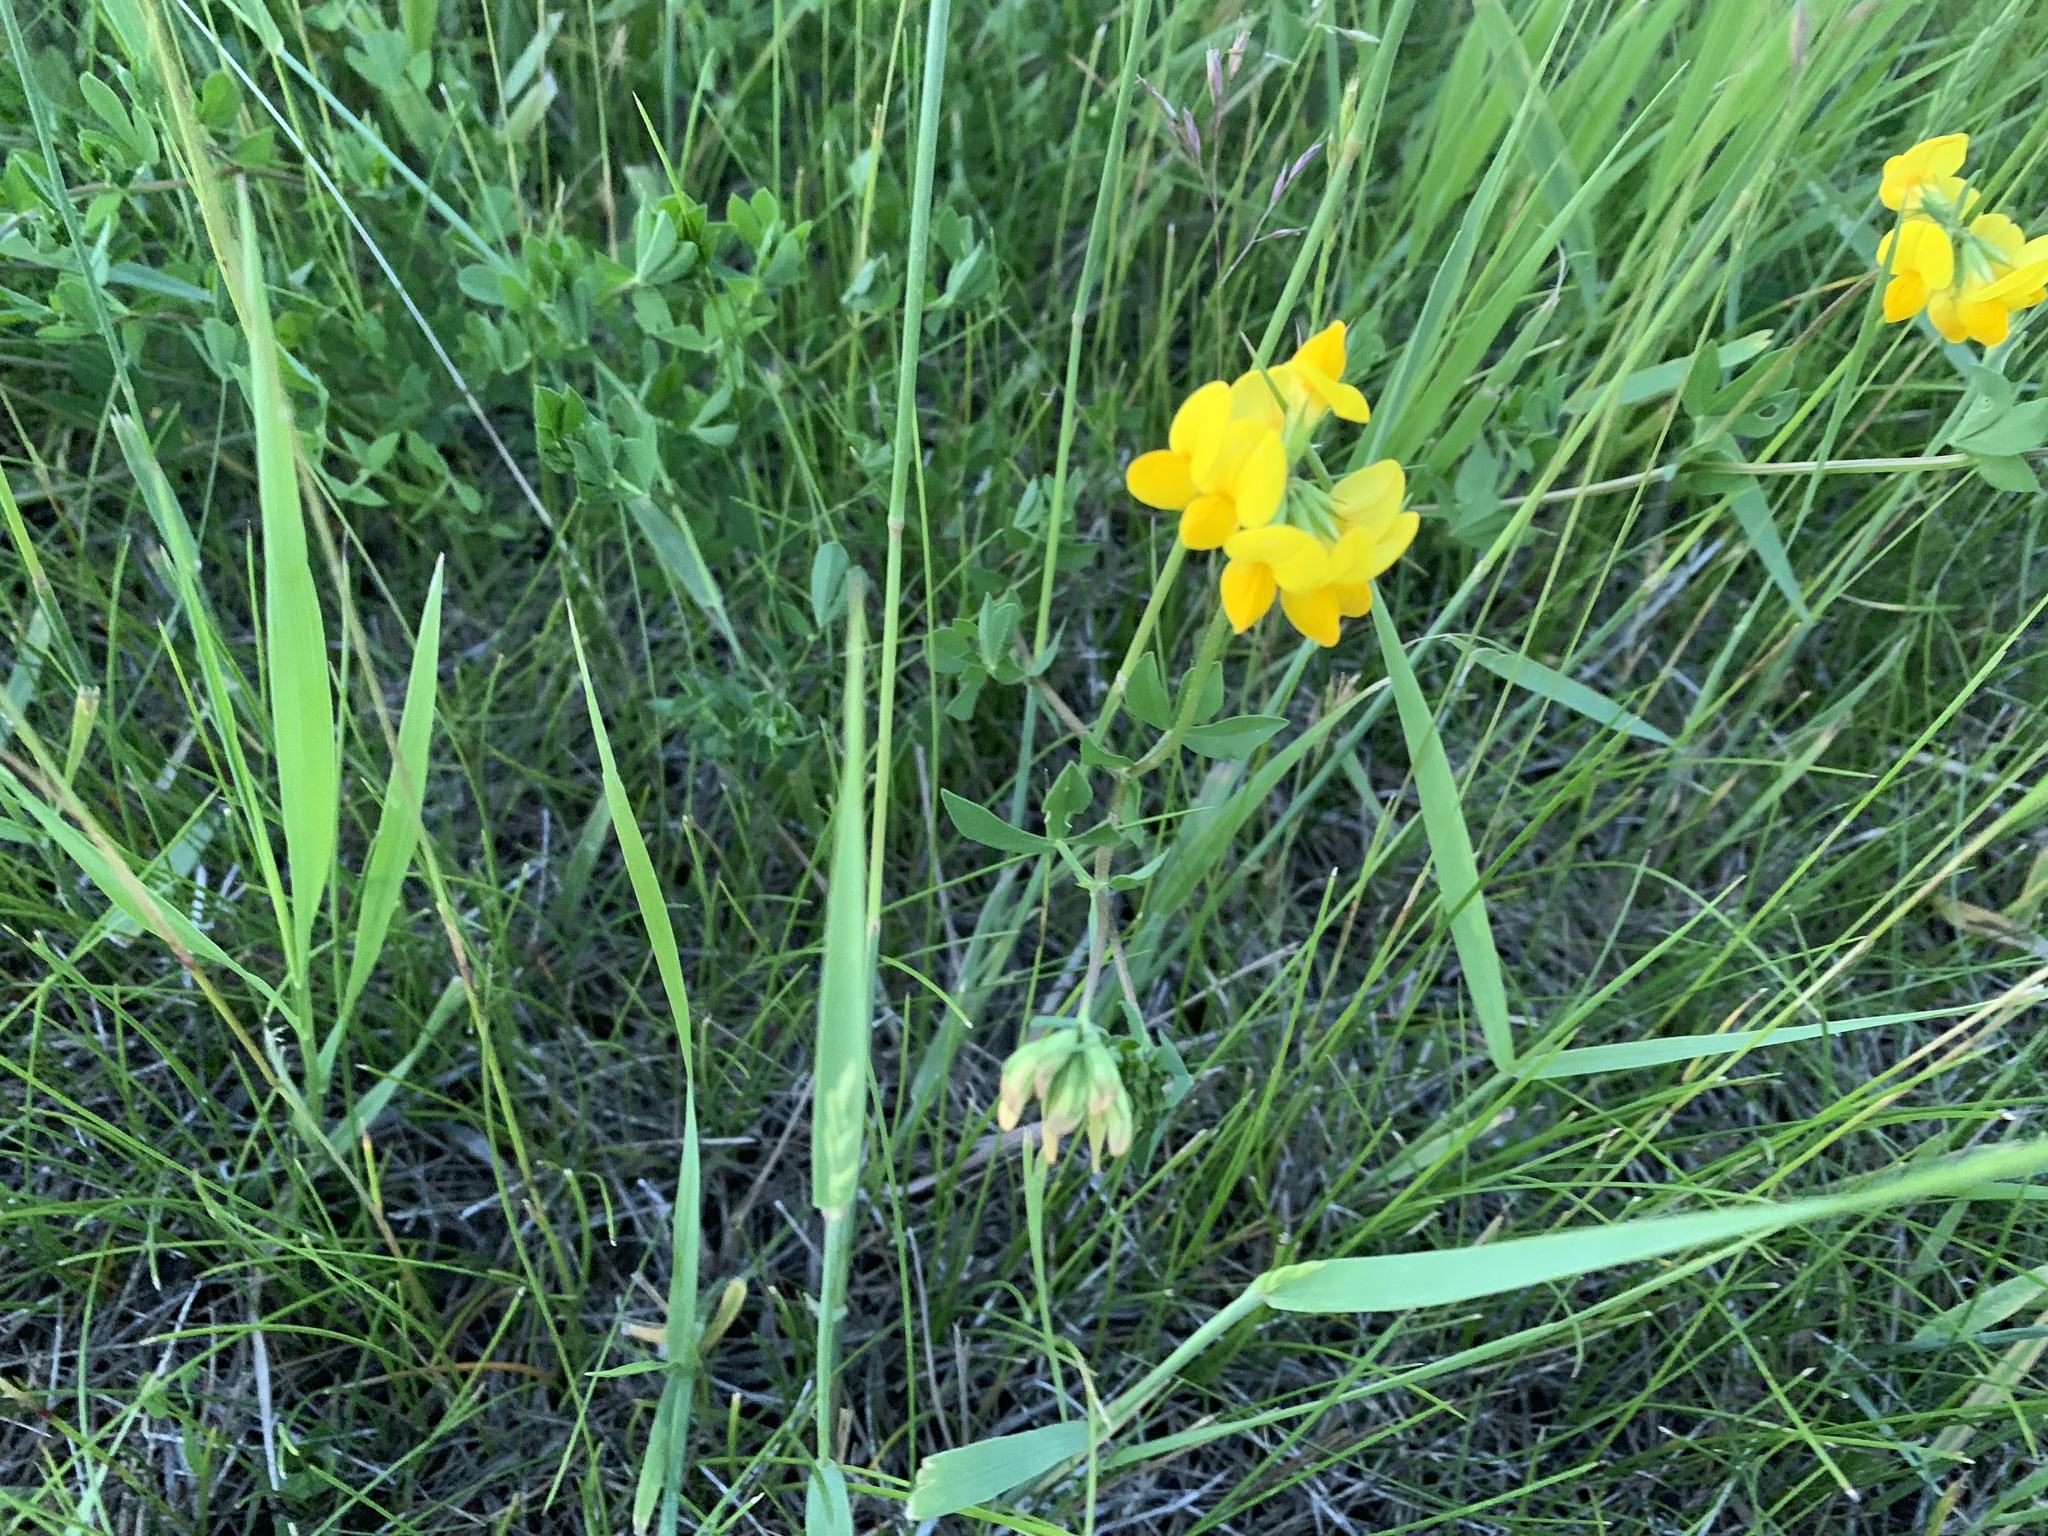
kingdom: Plantae
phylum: Tracheophyta
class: Magnoliopsida
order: Fabales
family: Fabaceae
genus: Lotus
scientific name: Lotus corniculatus
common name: Common bird's-foot-trefoil
